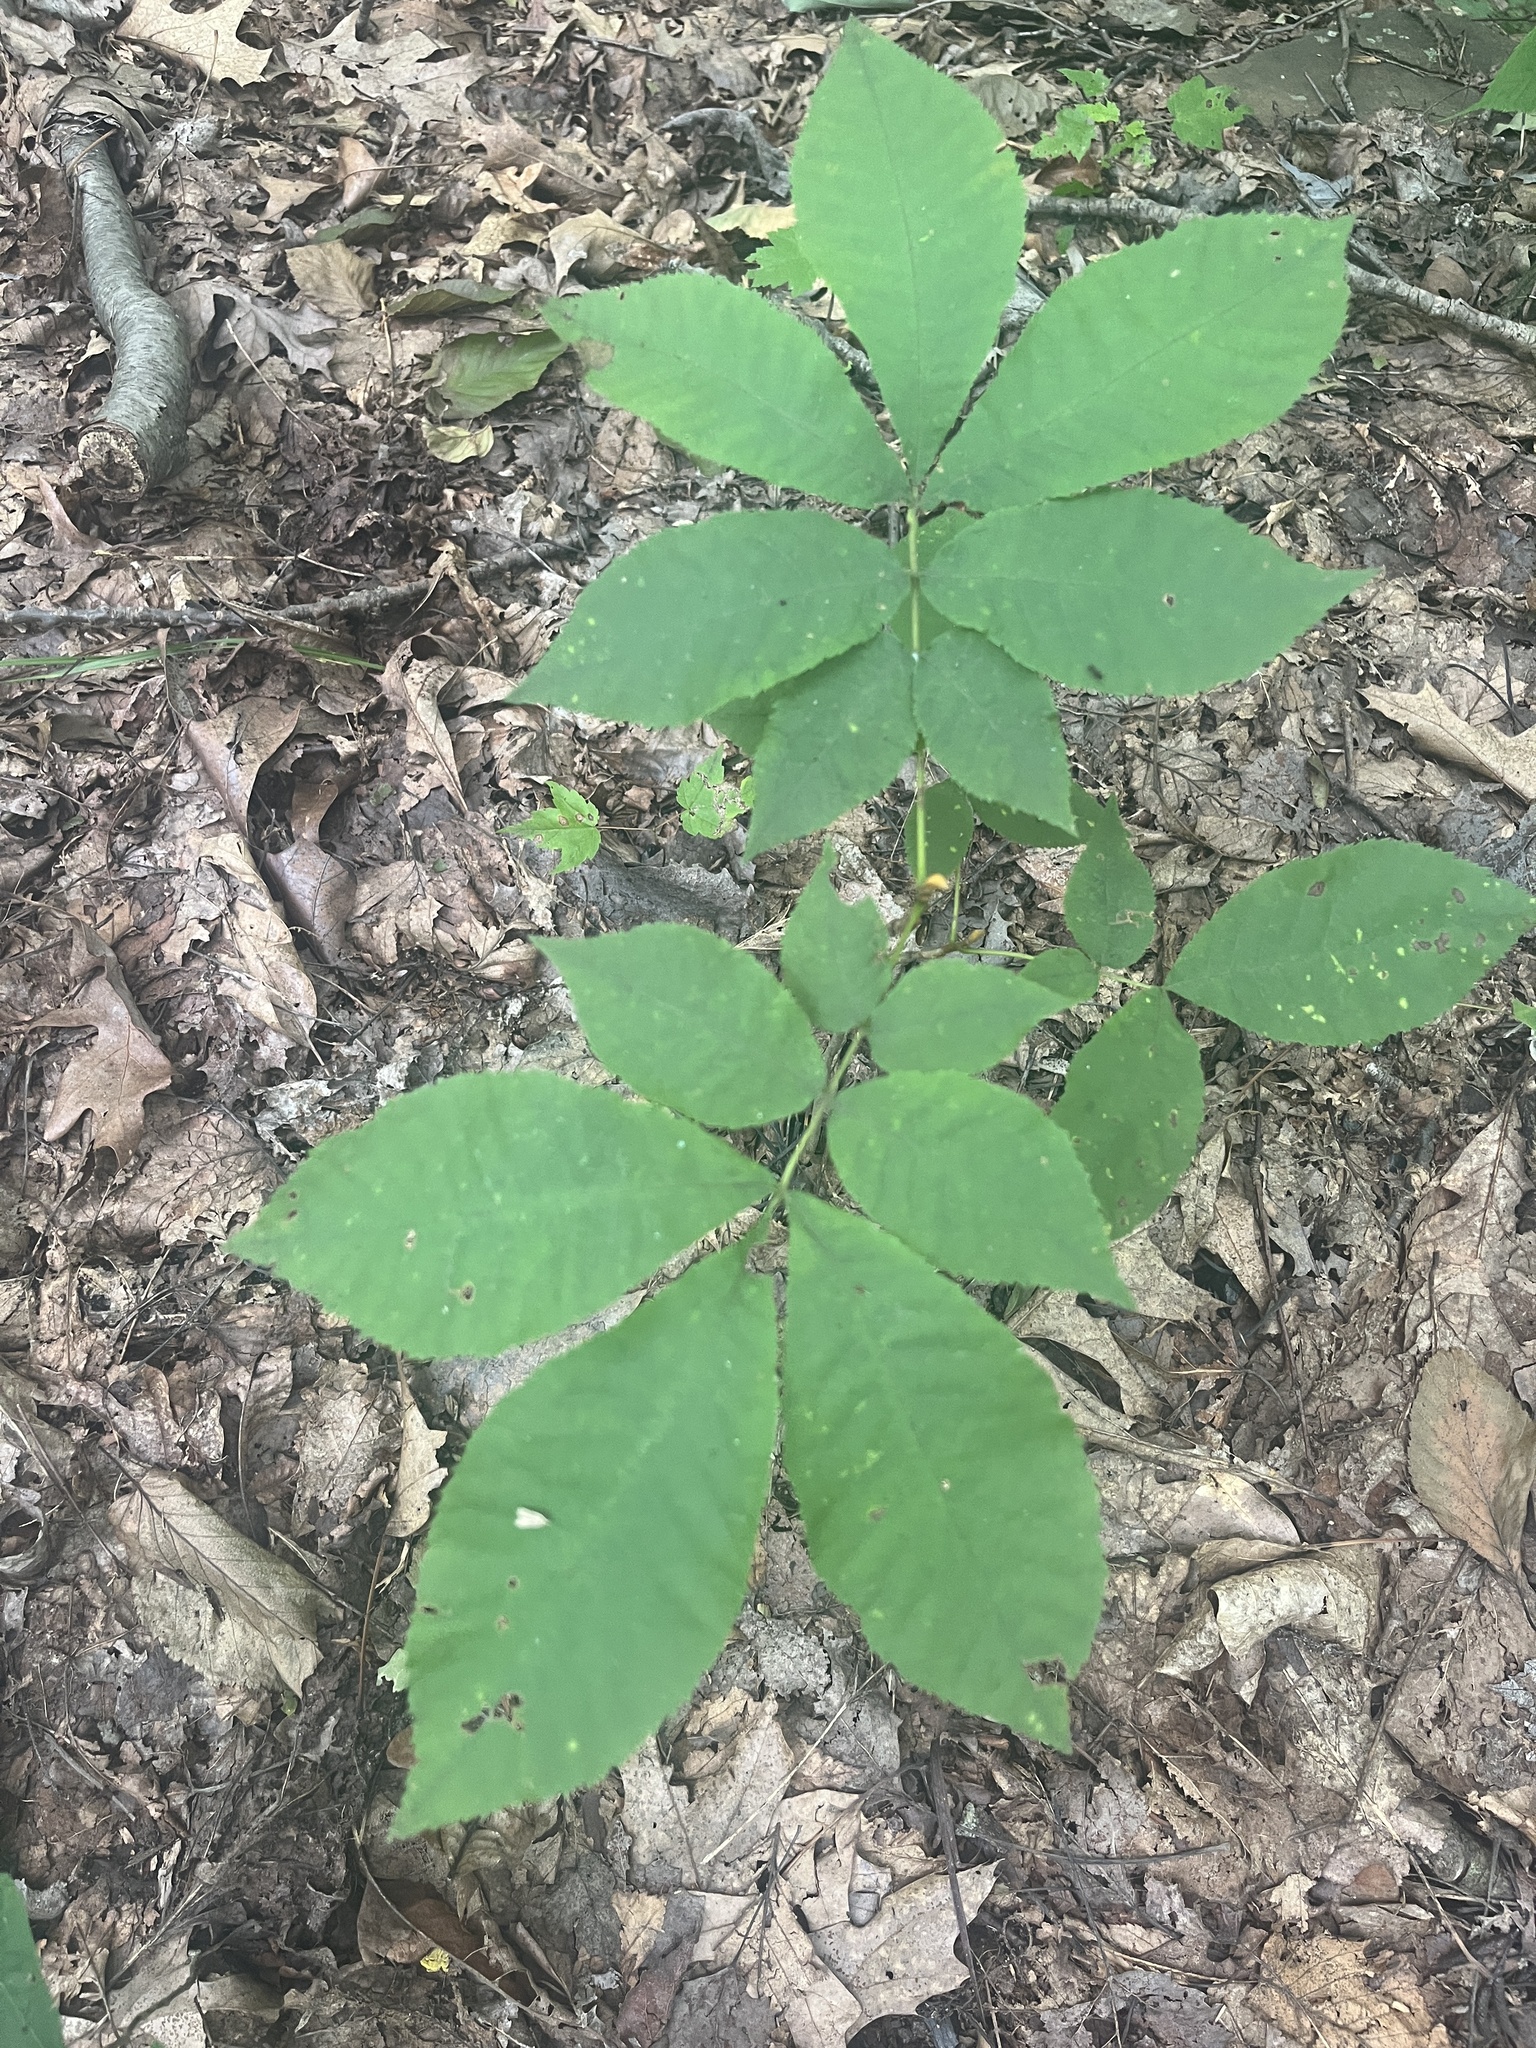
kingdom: Plantae
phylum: Tracheophyta
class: Magnoliopsida
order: Fagales
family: Juglandaceae
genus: Carya
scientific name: Carya cordiformis
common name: Bitternut hickory
